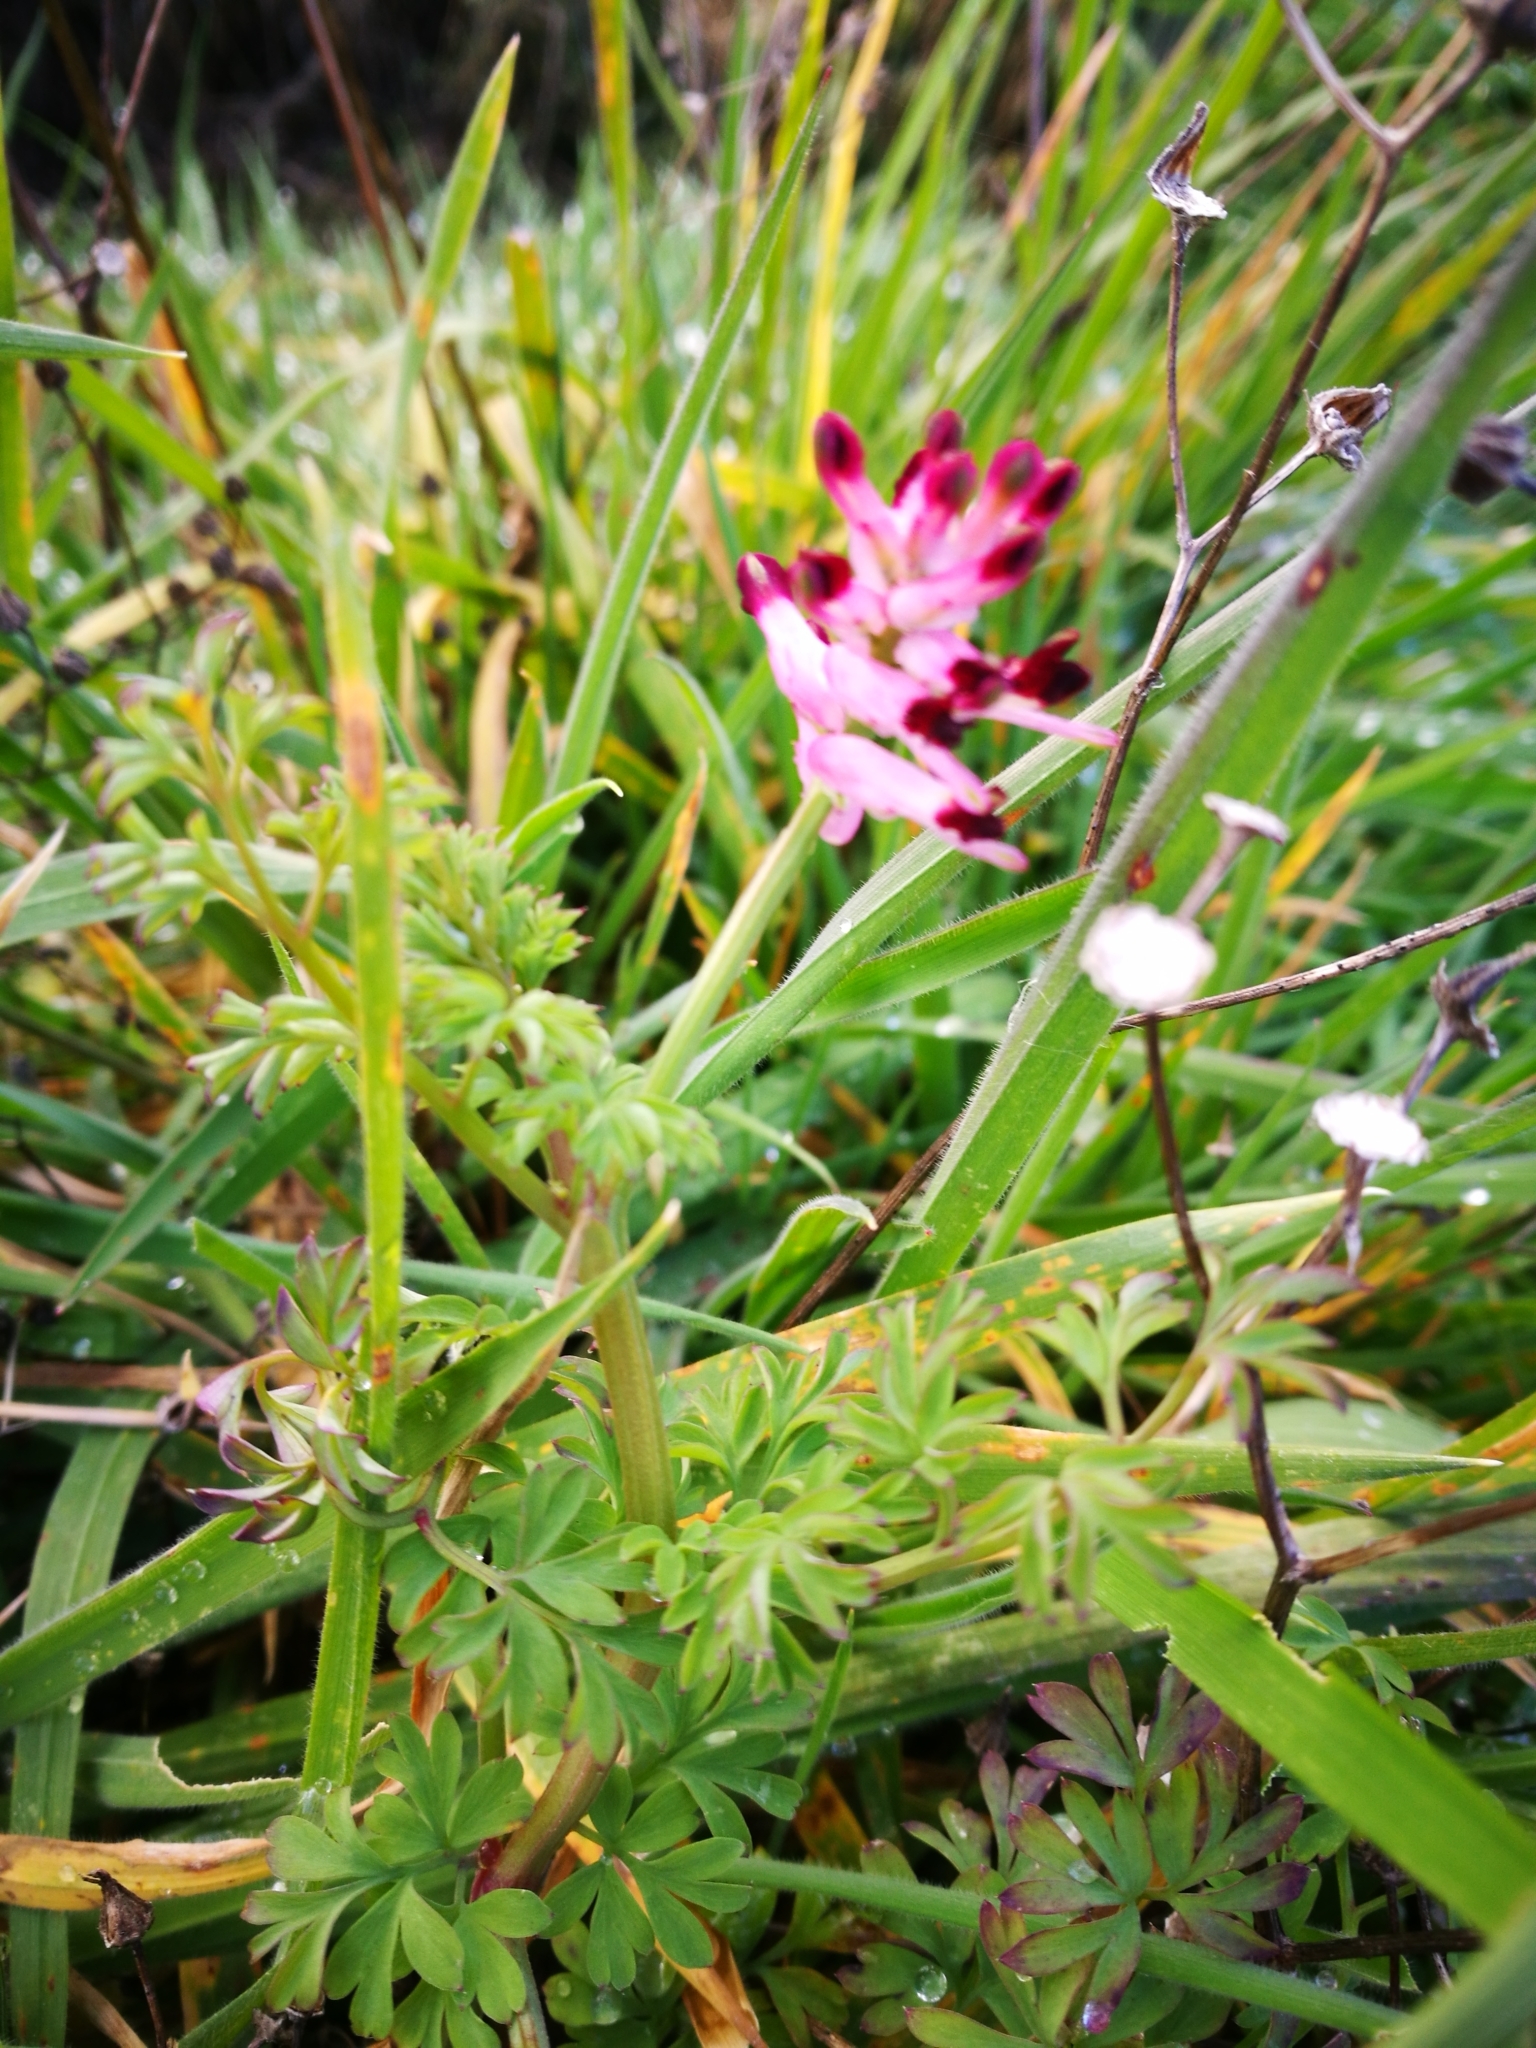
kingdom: Plantae
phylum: Tracheophyta
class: Magnoliopsida
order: Ranunculales
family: Papaveraceae
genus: Fumaria
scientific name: Fumaria bastardii
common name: Tall ramping-fumitory
